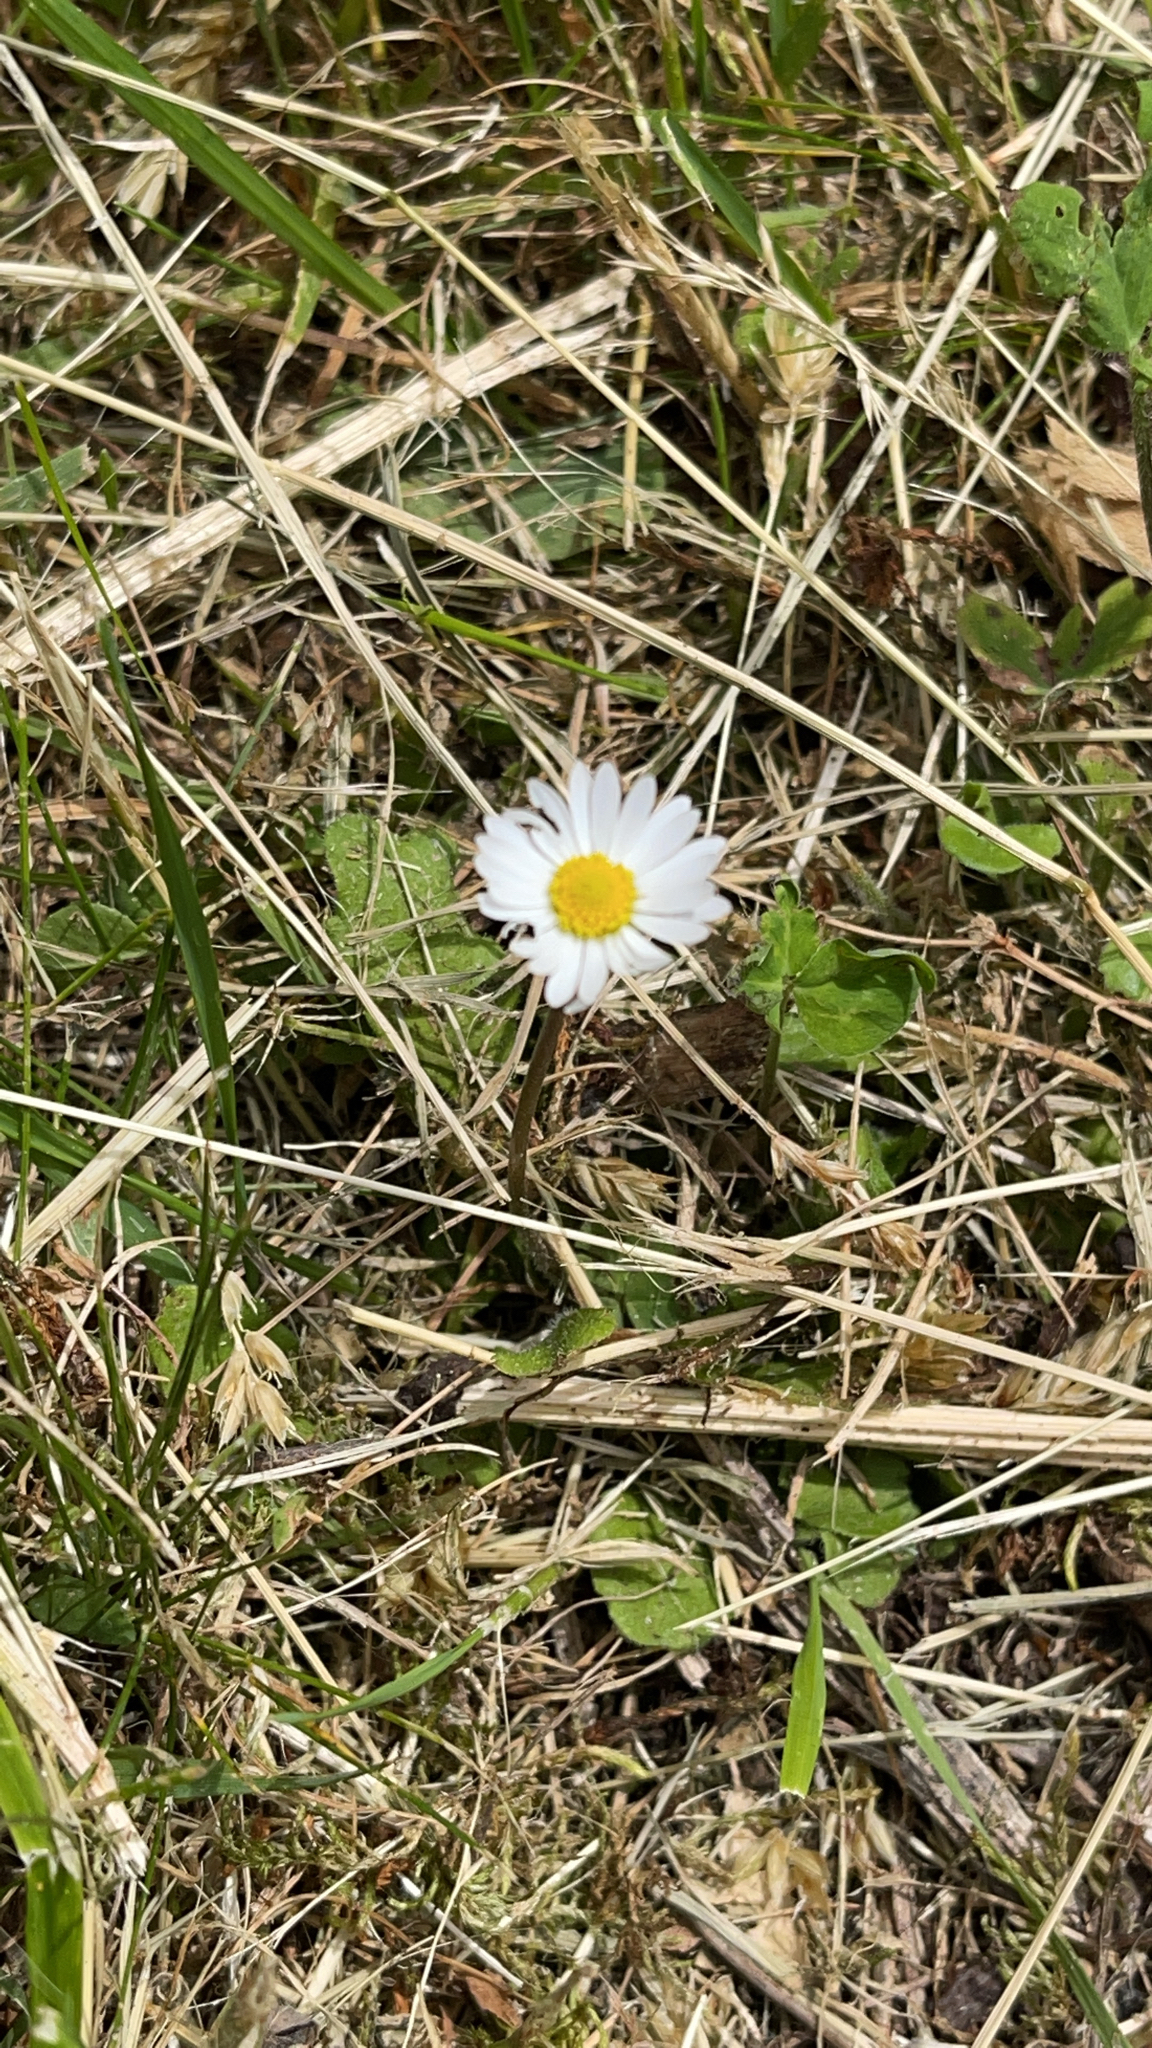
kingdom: Plantae
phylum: Tracheophyta
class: Magnoliopsida
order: Asterales
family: Asteraceae
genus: Bellis
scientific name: Bellis perennis
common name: Lawndaisy
